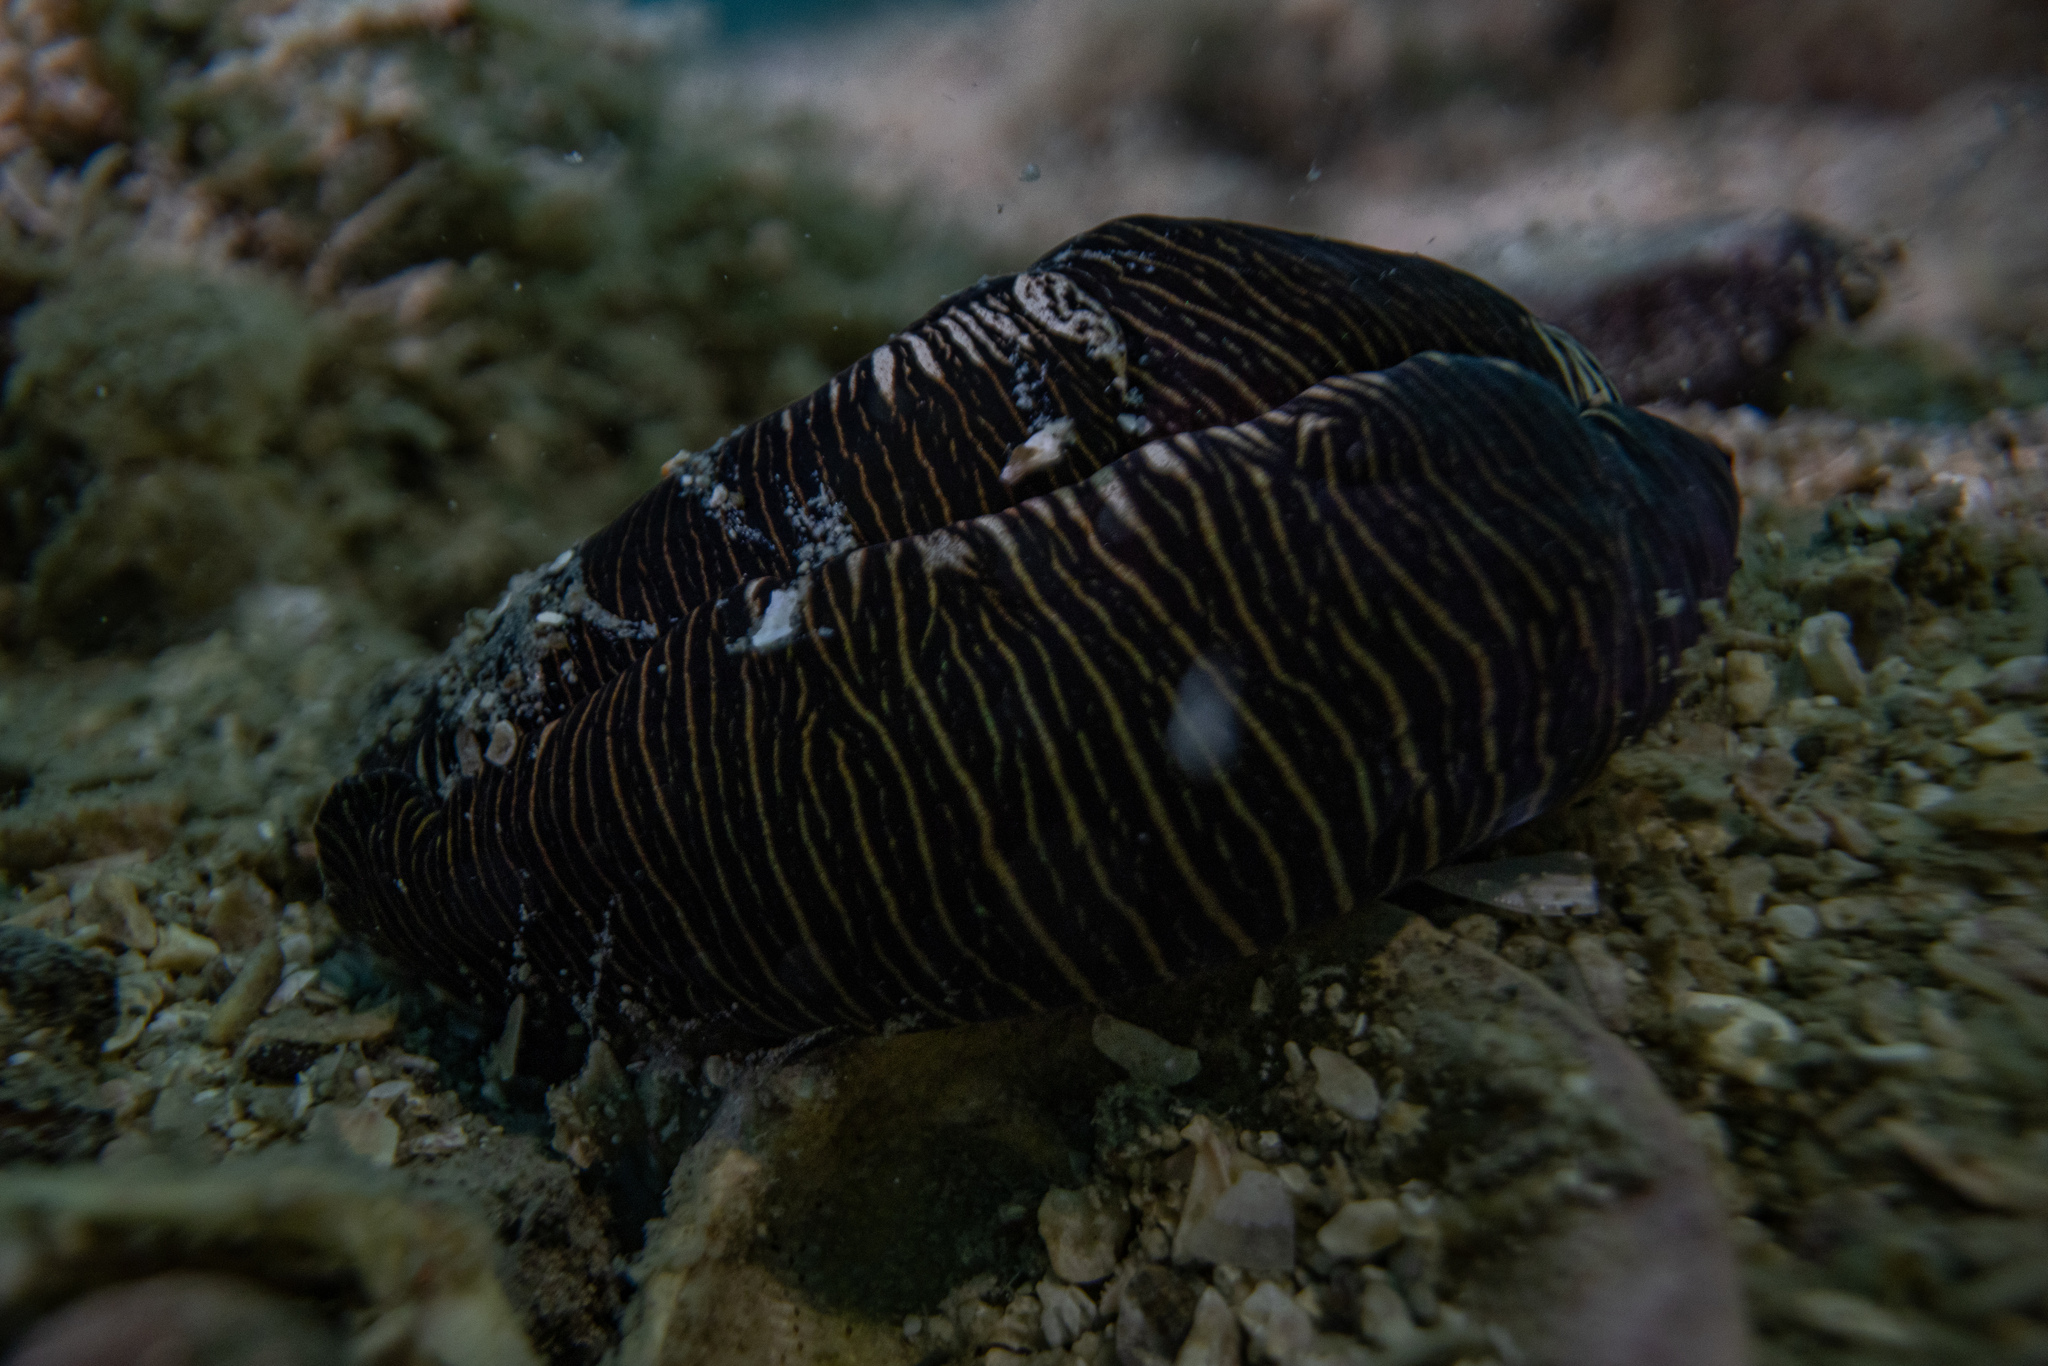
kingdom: Animalia
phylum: Mollusca
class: Gastropoda
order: Cephalaspidea
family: Aglajidae
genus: Tubulophilinopsis
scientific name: Tubulophilinopsis lineolata
